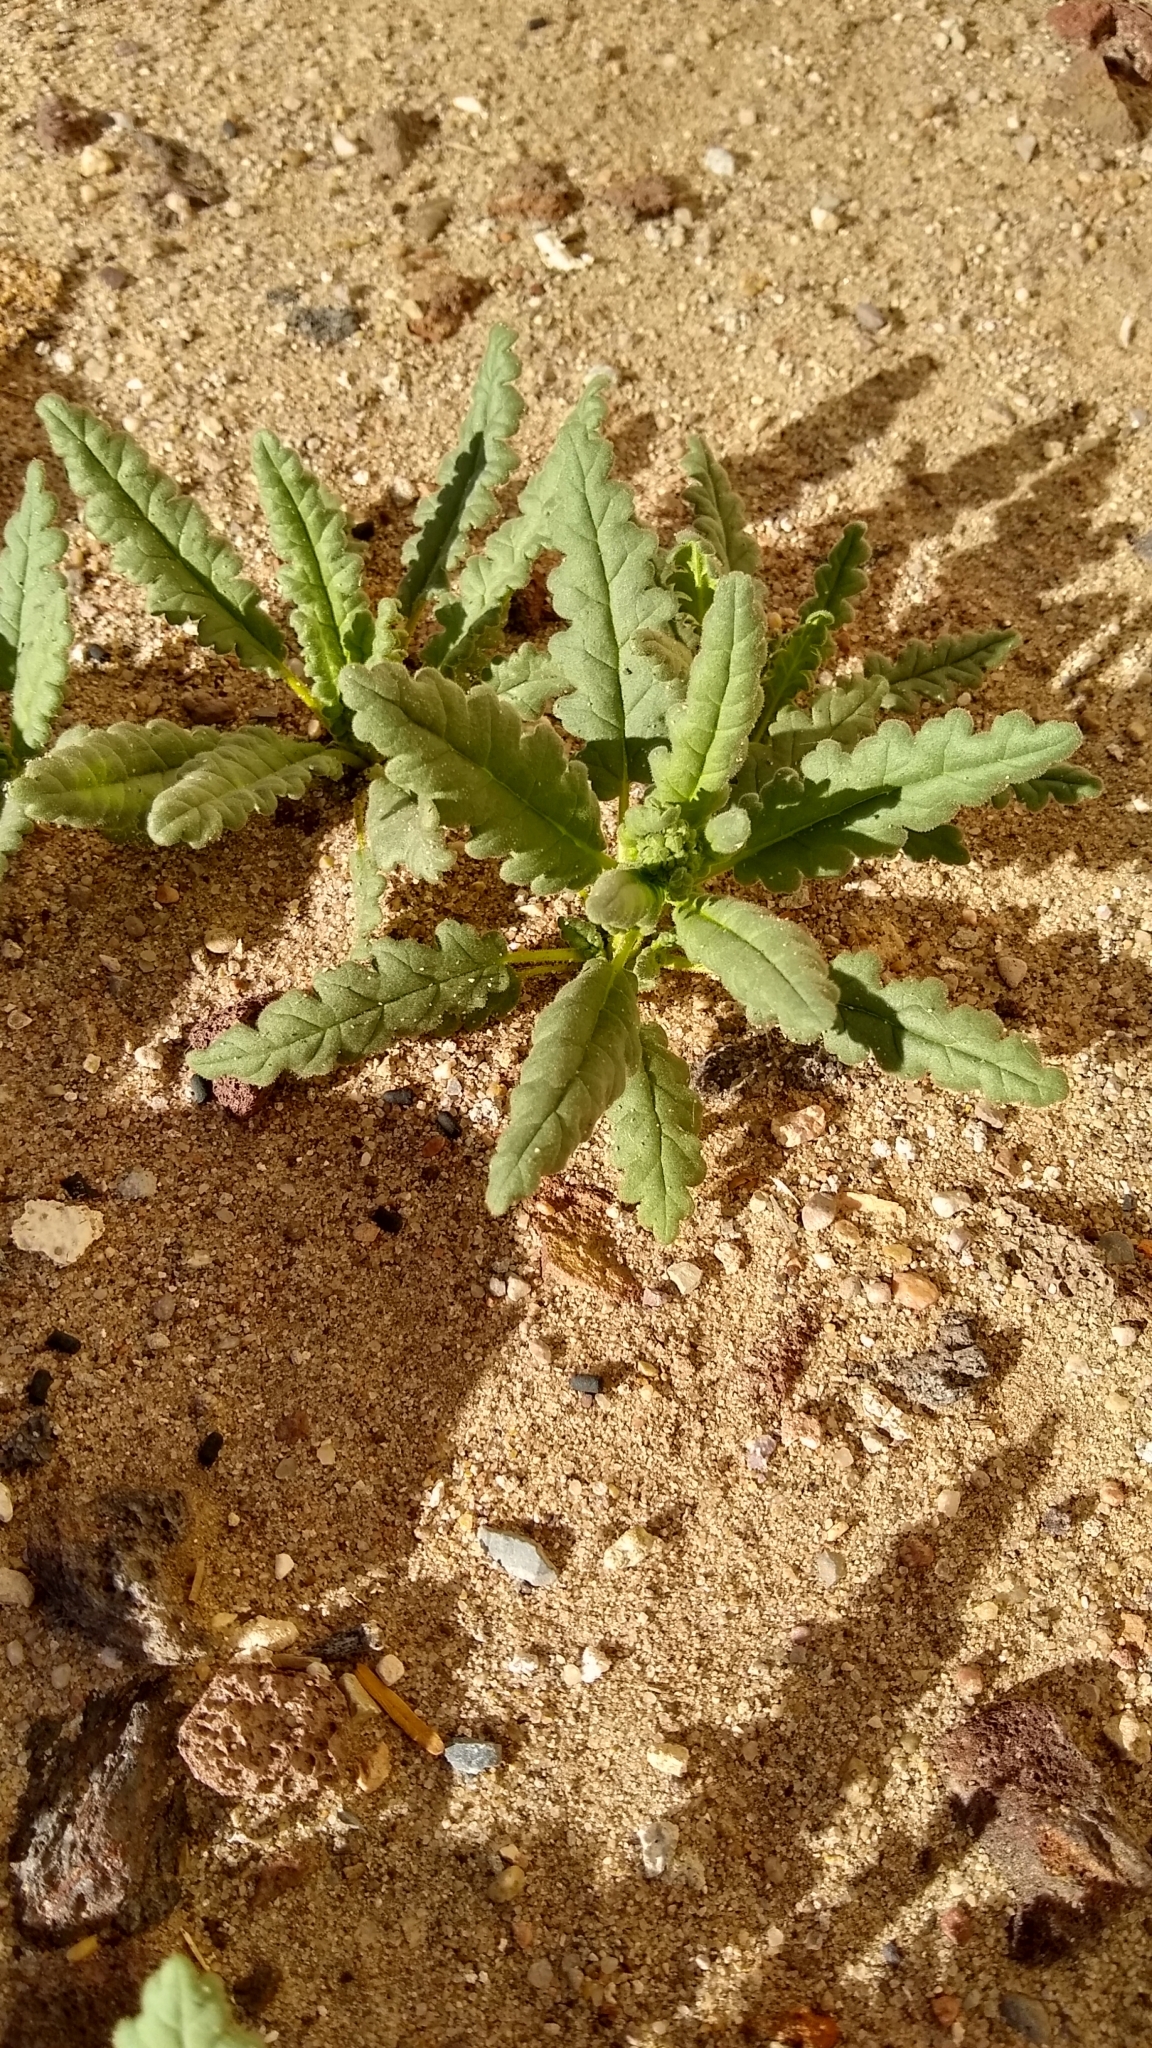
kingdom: Plantae
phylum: Tracheophyta
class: Magnoliopsida
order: Boraginales
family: Hydrophyllaceae
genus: Phacelia
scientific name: Phacelia integrifolia
